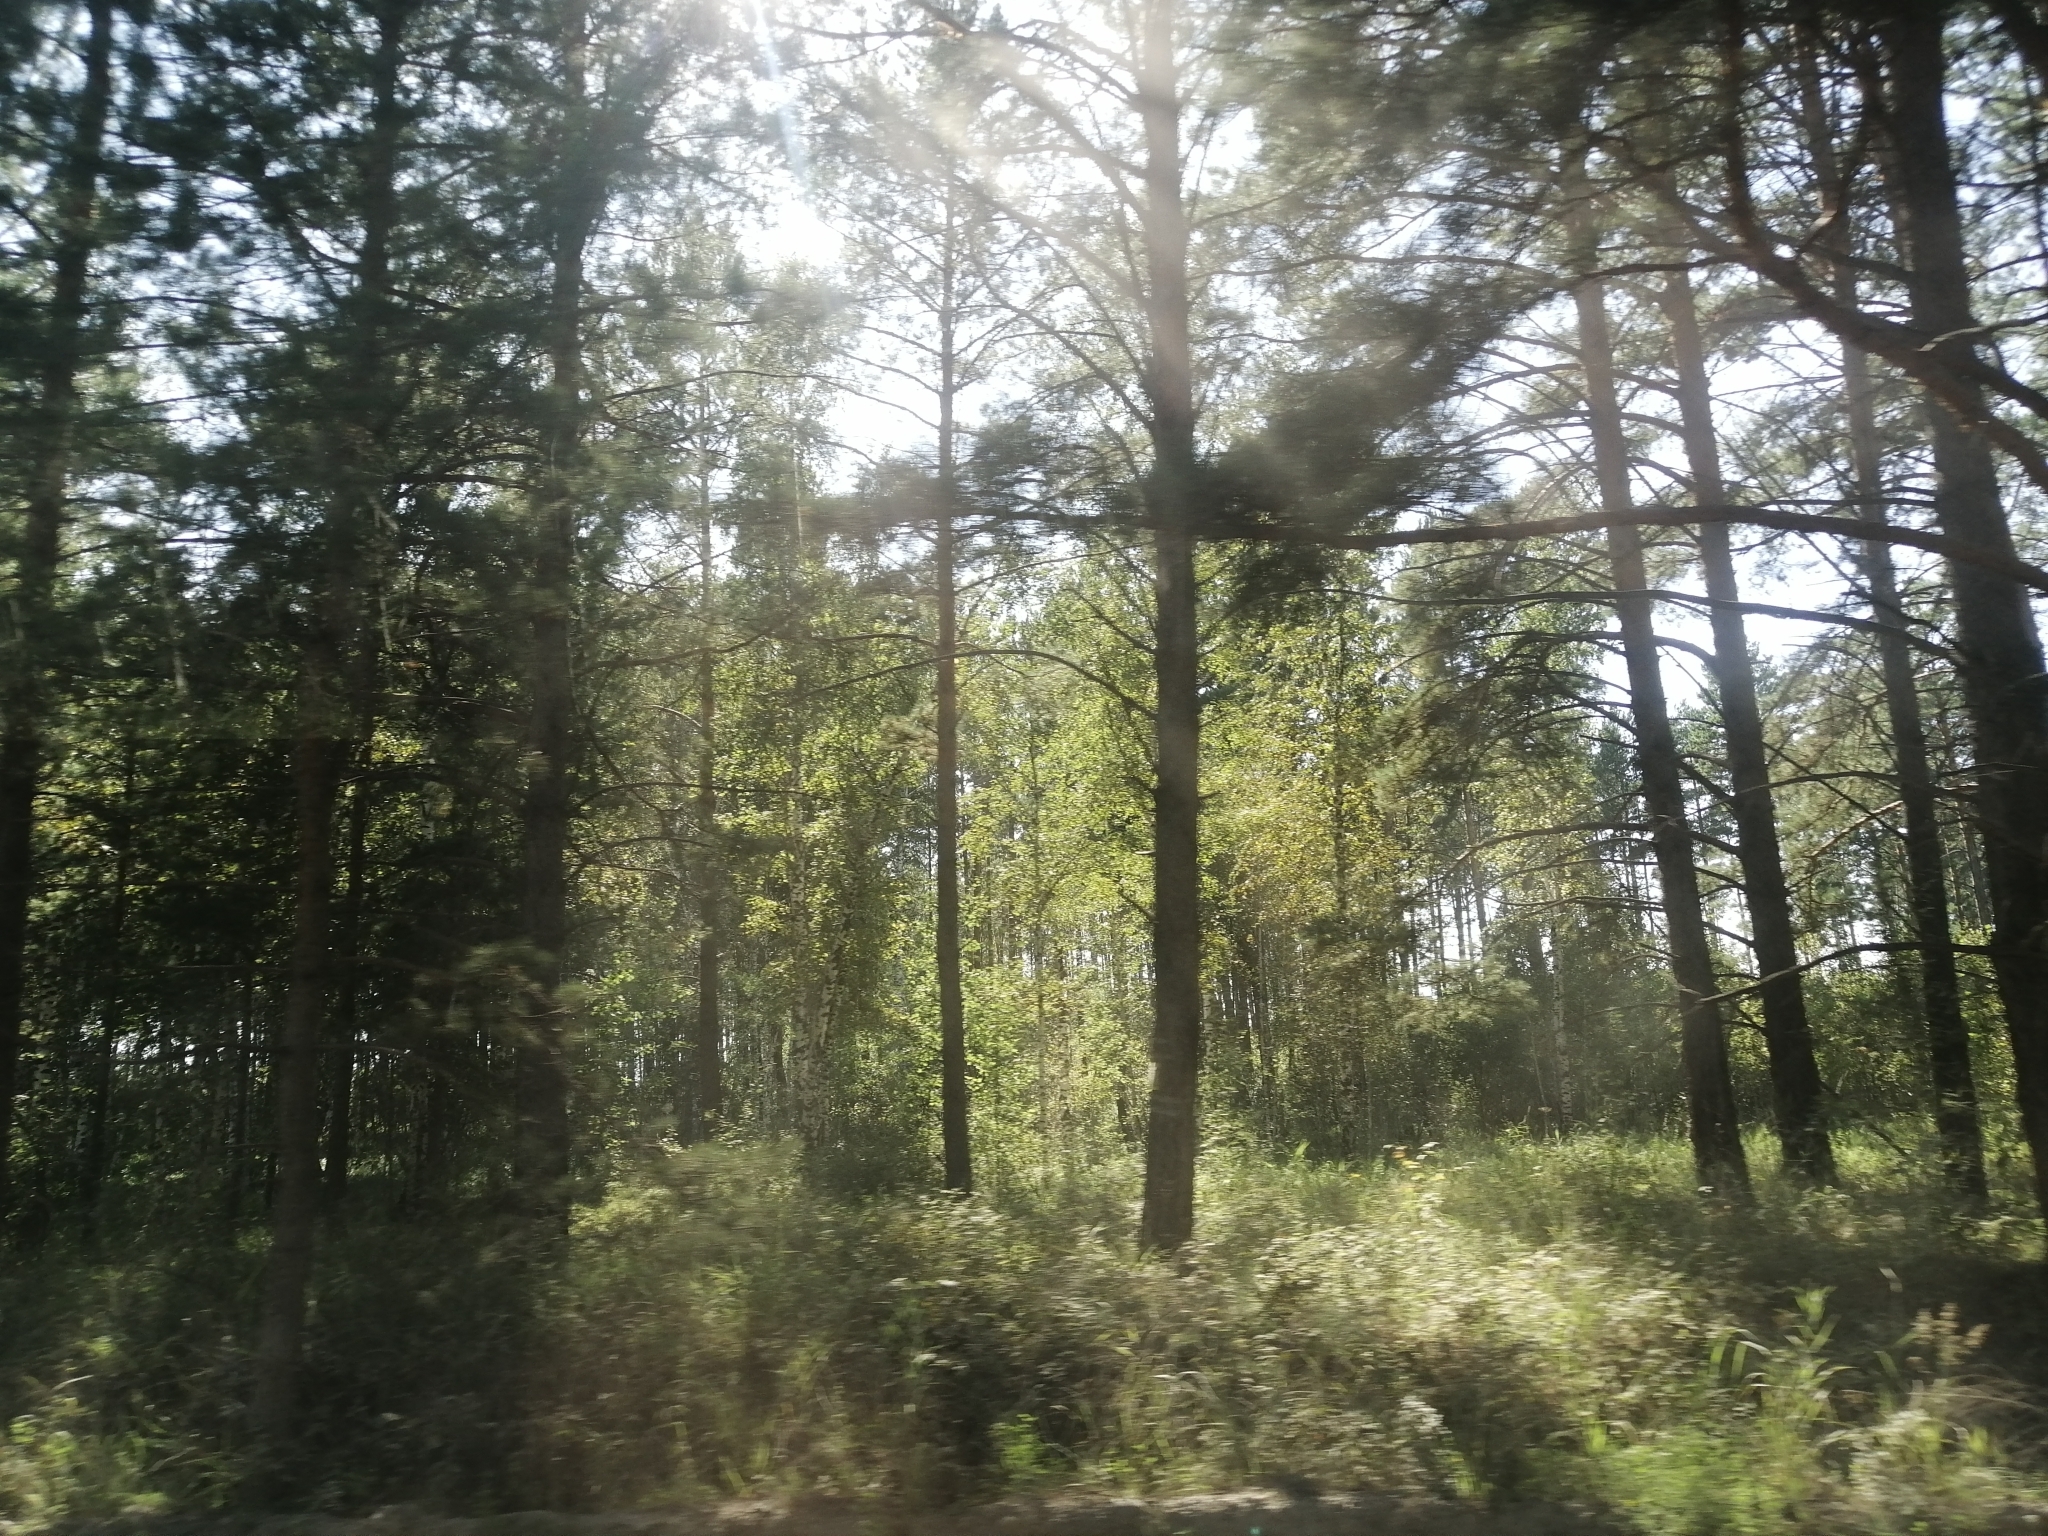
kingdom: Plantae
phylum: Tracheophyta
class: Pinopsida
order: Pinales
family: Pinaceae
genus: Pinus
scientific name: Pinus sylvestris
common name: Scots pine
